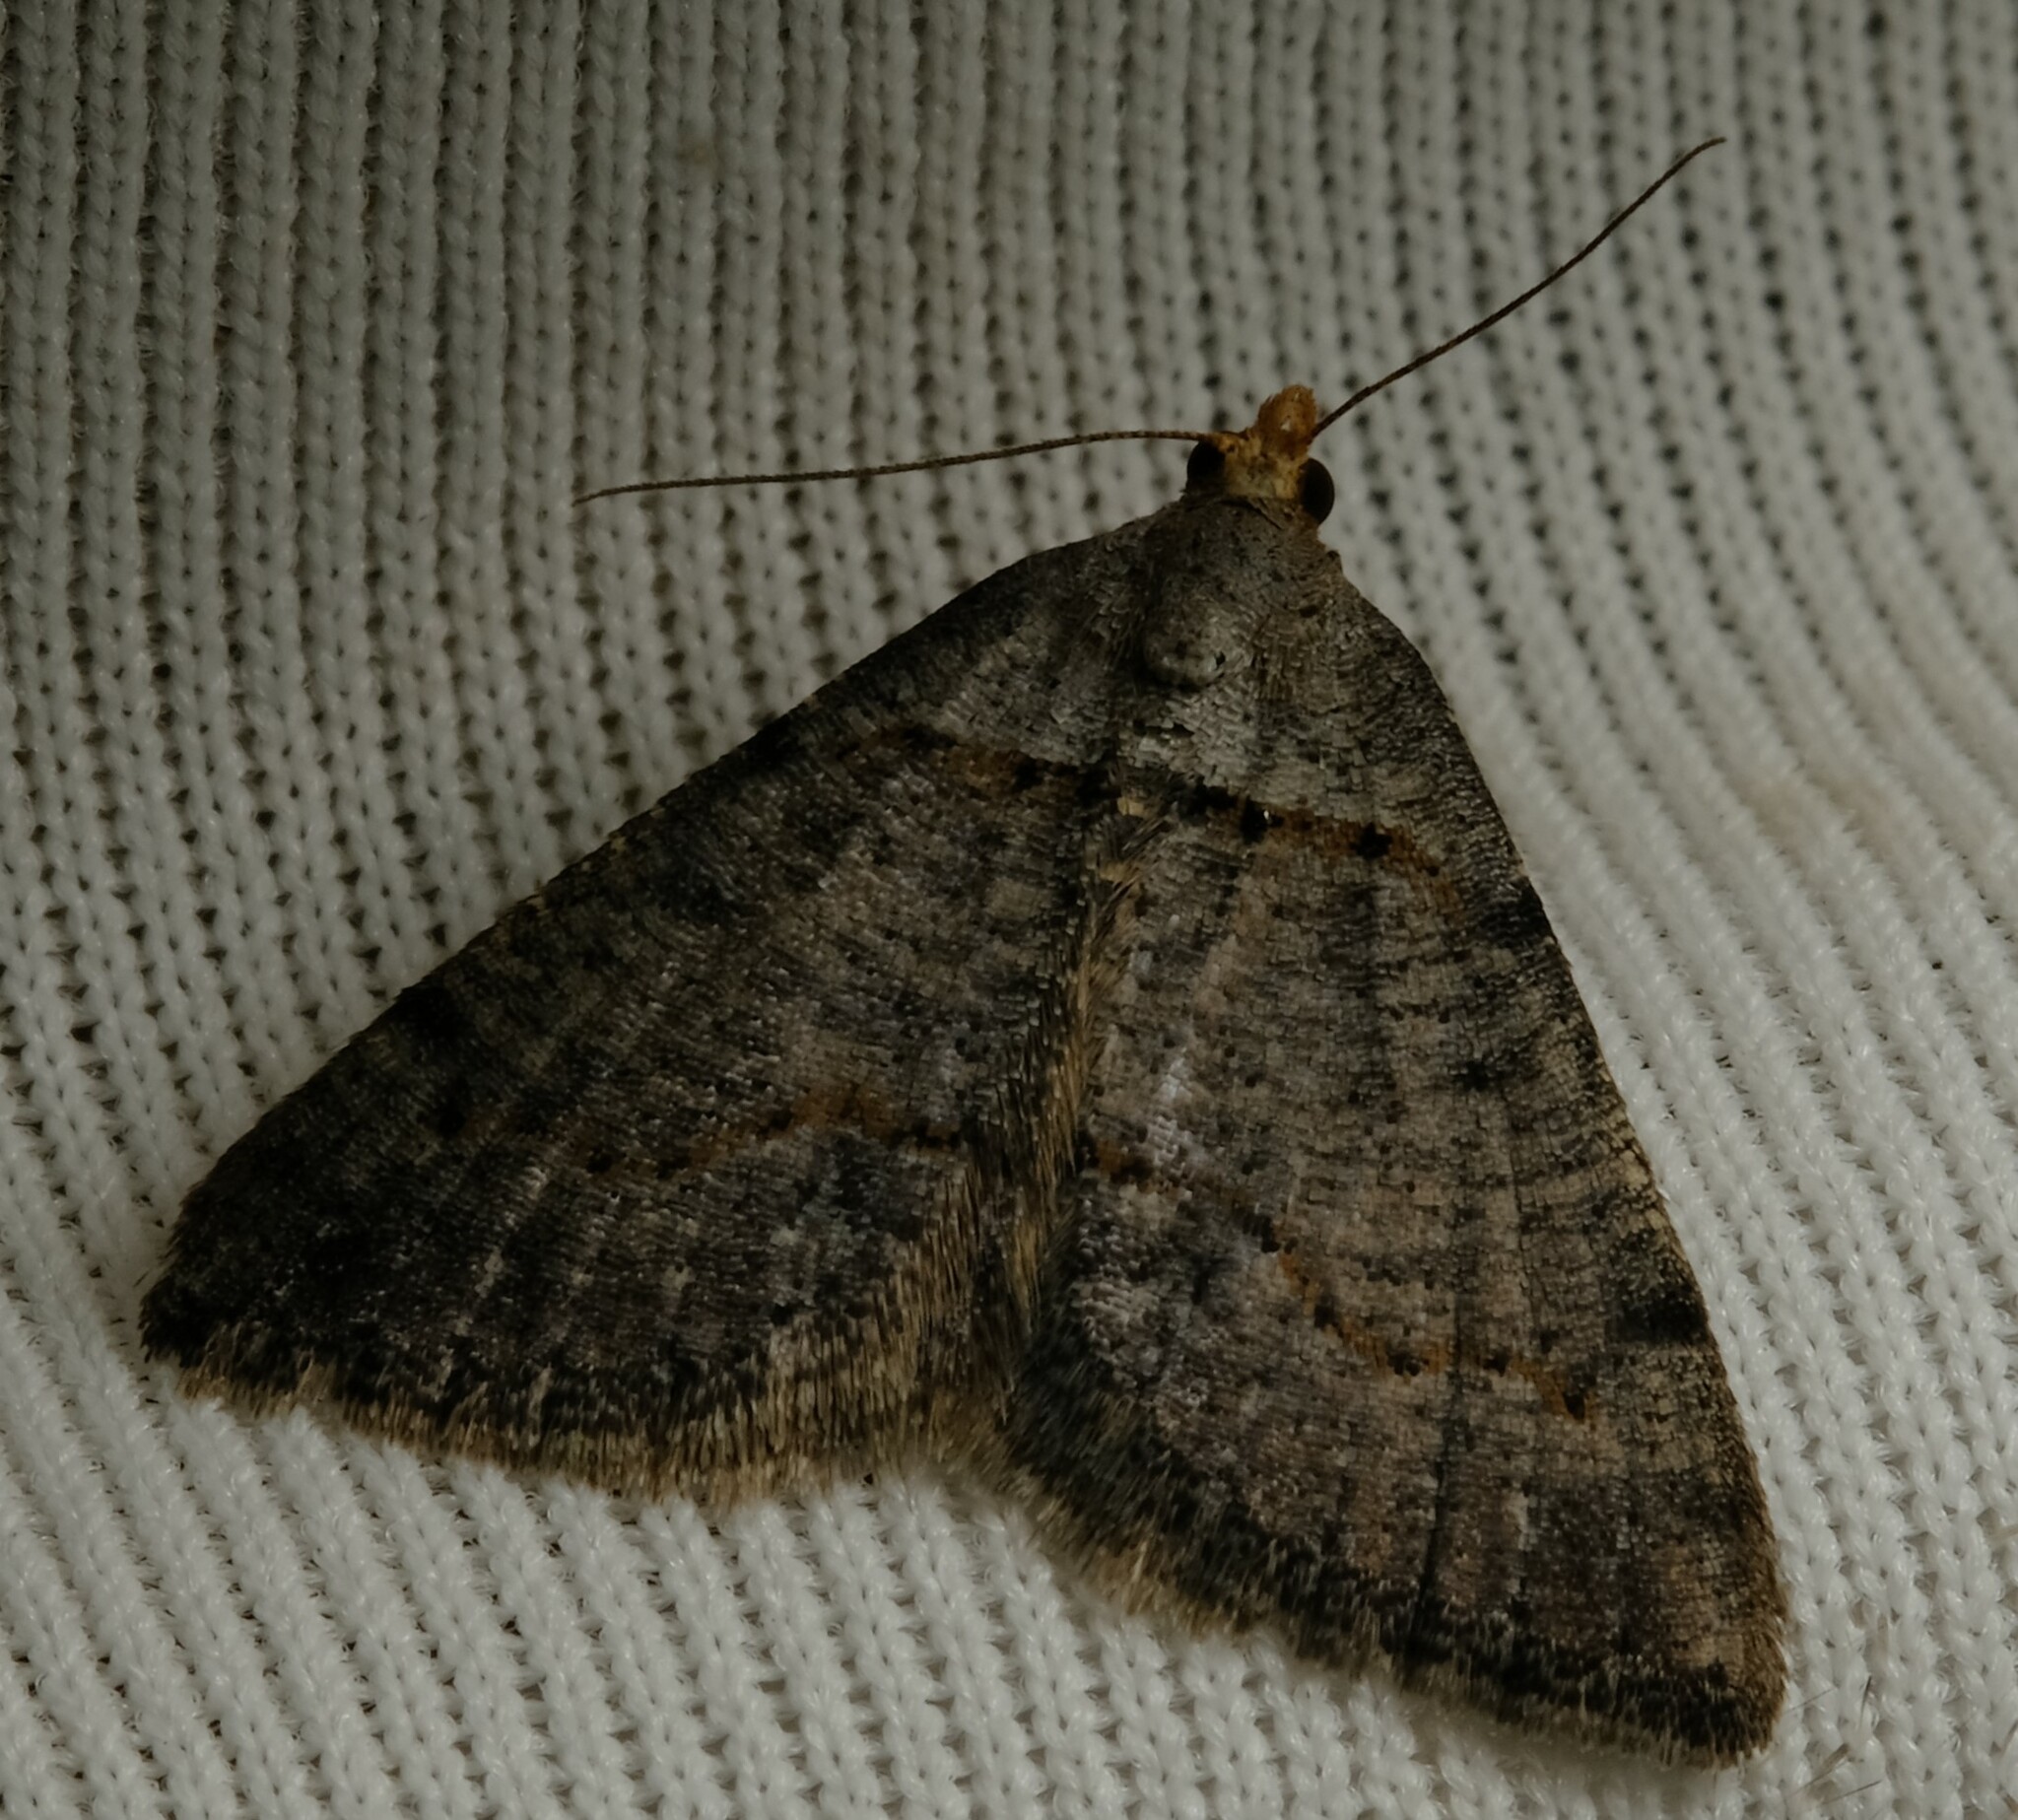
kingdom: Animalia
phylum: Arthropoda
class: Insecta
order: Lepidoptera
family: Geometridae
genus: Taxeotis
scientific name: Taxeotis exsectaria
